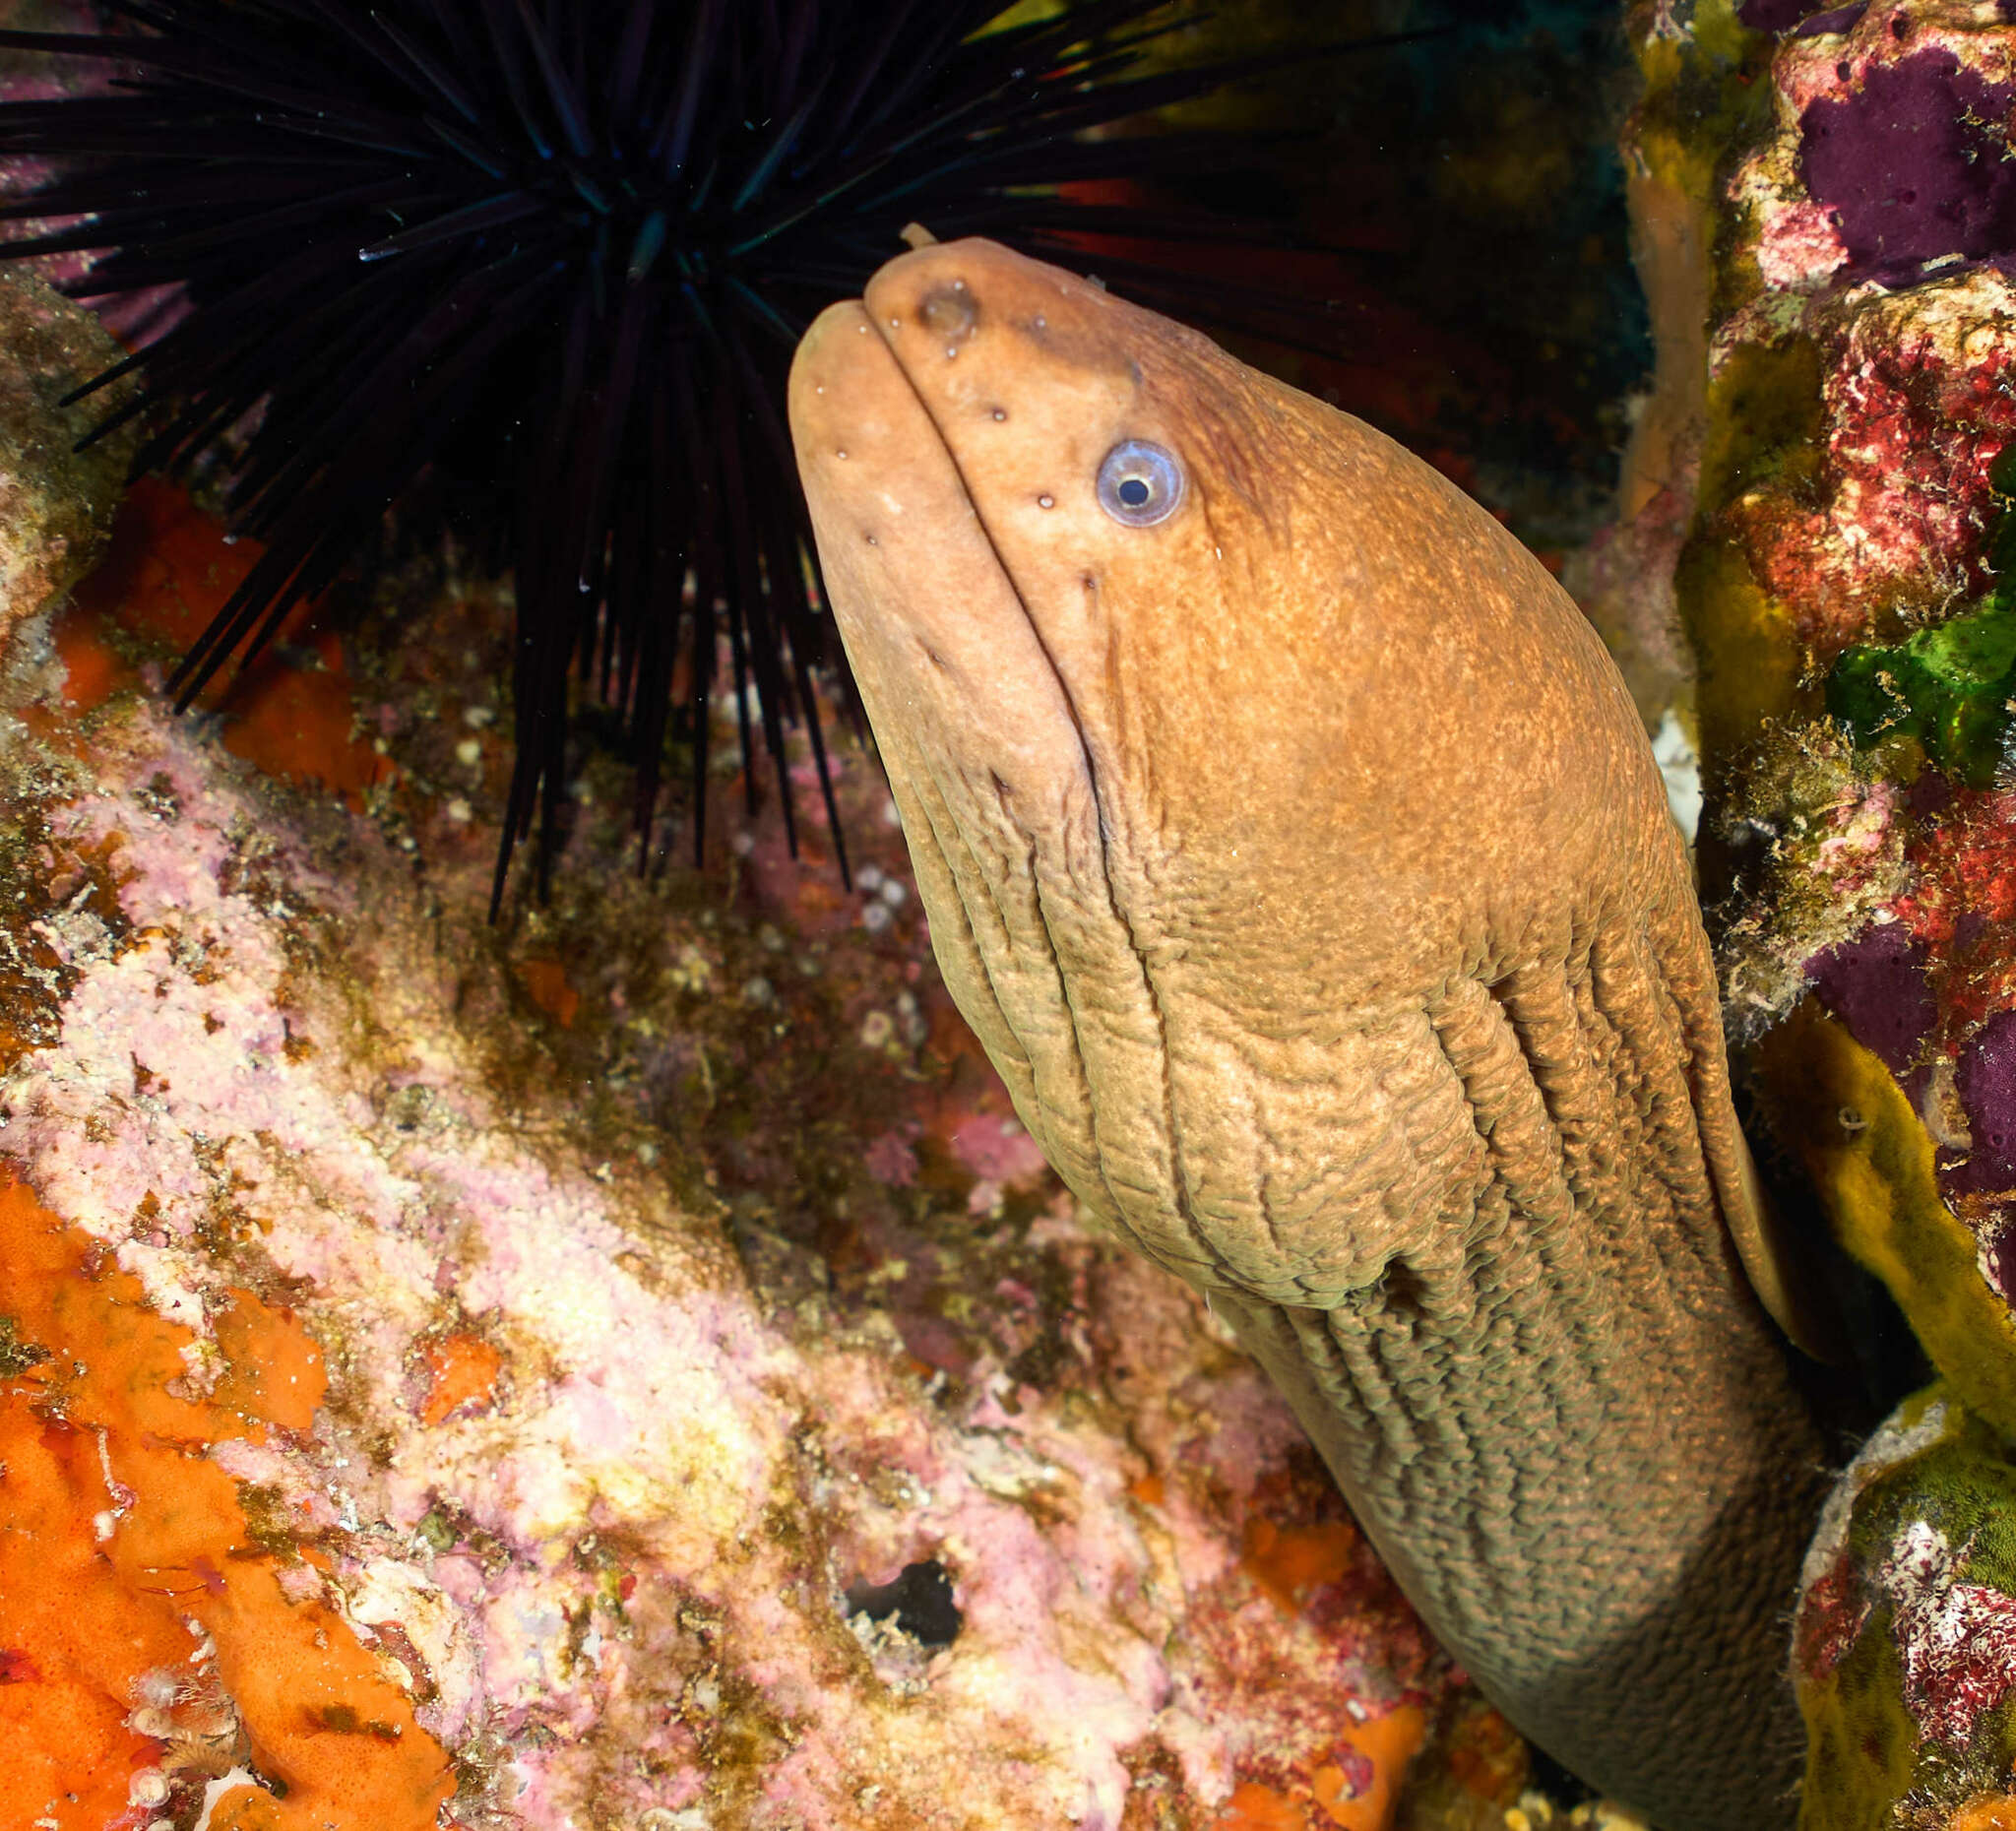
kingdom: Animalia
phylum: Chordata
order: Anguilliformes
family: Muraenidae
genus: Gymnothorax
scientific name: Gymnothorax prasinus
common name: Yellow moray
